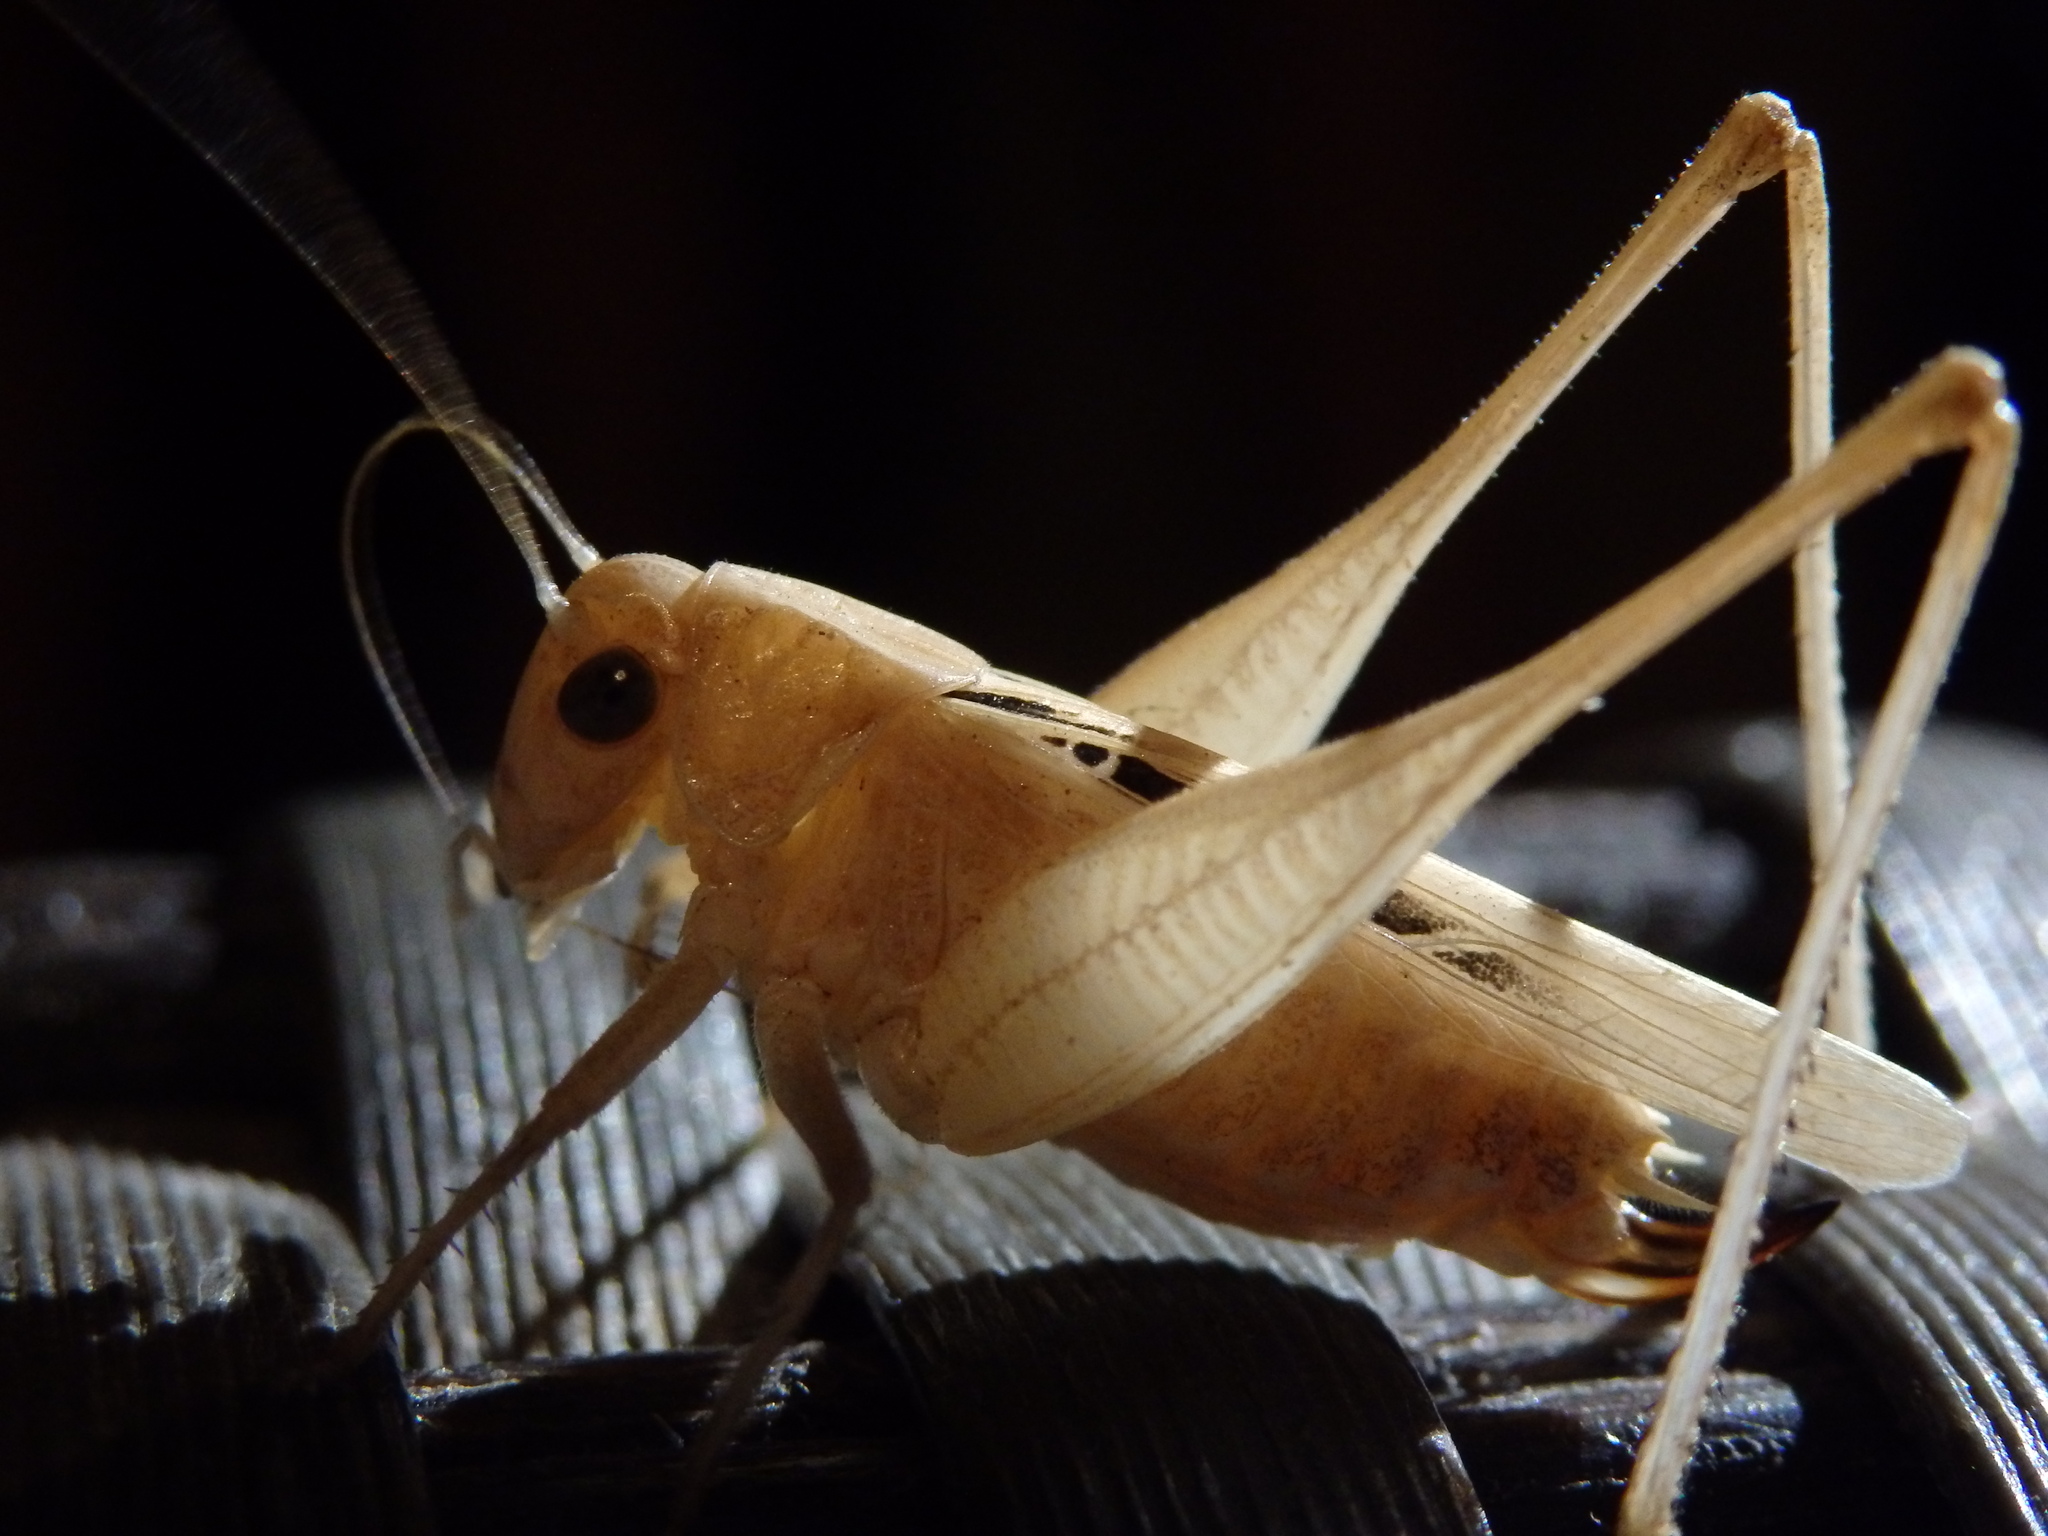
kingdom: Animalia
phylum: Arthropoda
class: Insecta
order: Orthoptera
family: Tettigoniidae
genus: Tessellana
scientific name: Tessellana tessellata
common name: Grasshopper
